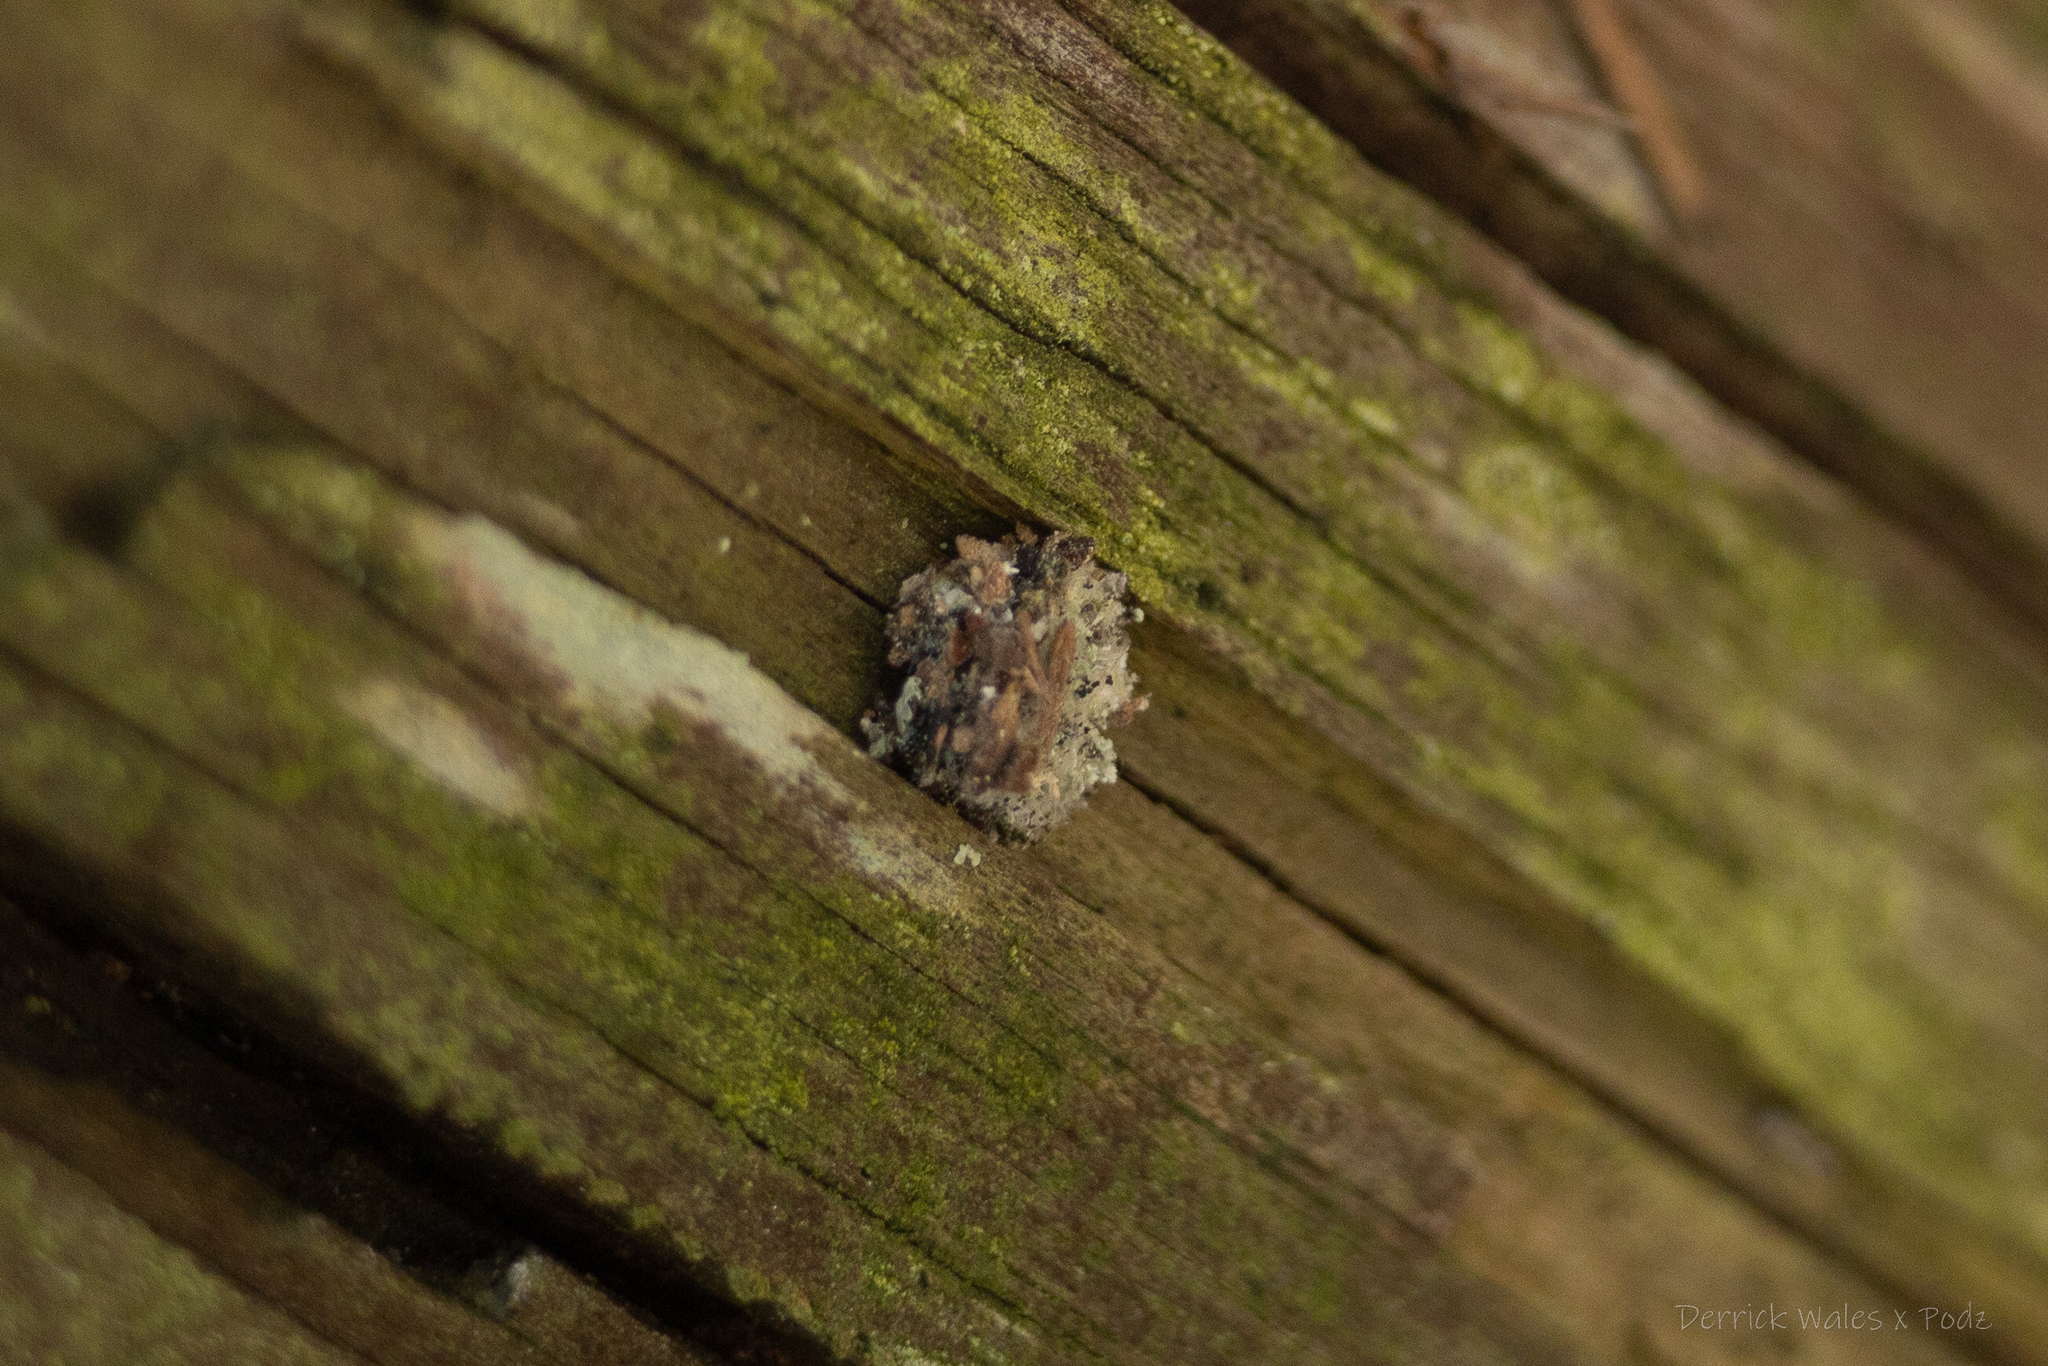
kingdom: Animalia
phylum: Arthropoda
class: Insecta
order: Neuroptera
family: Chrysopidae
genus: Leucochrysa
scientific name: Leucochrysa pavida
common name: Lichen-carrying green lacewing
